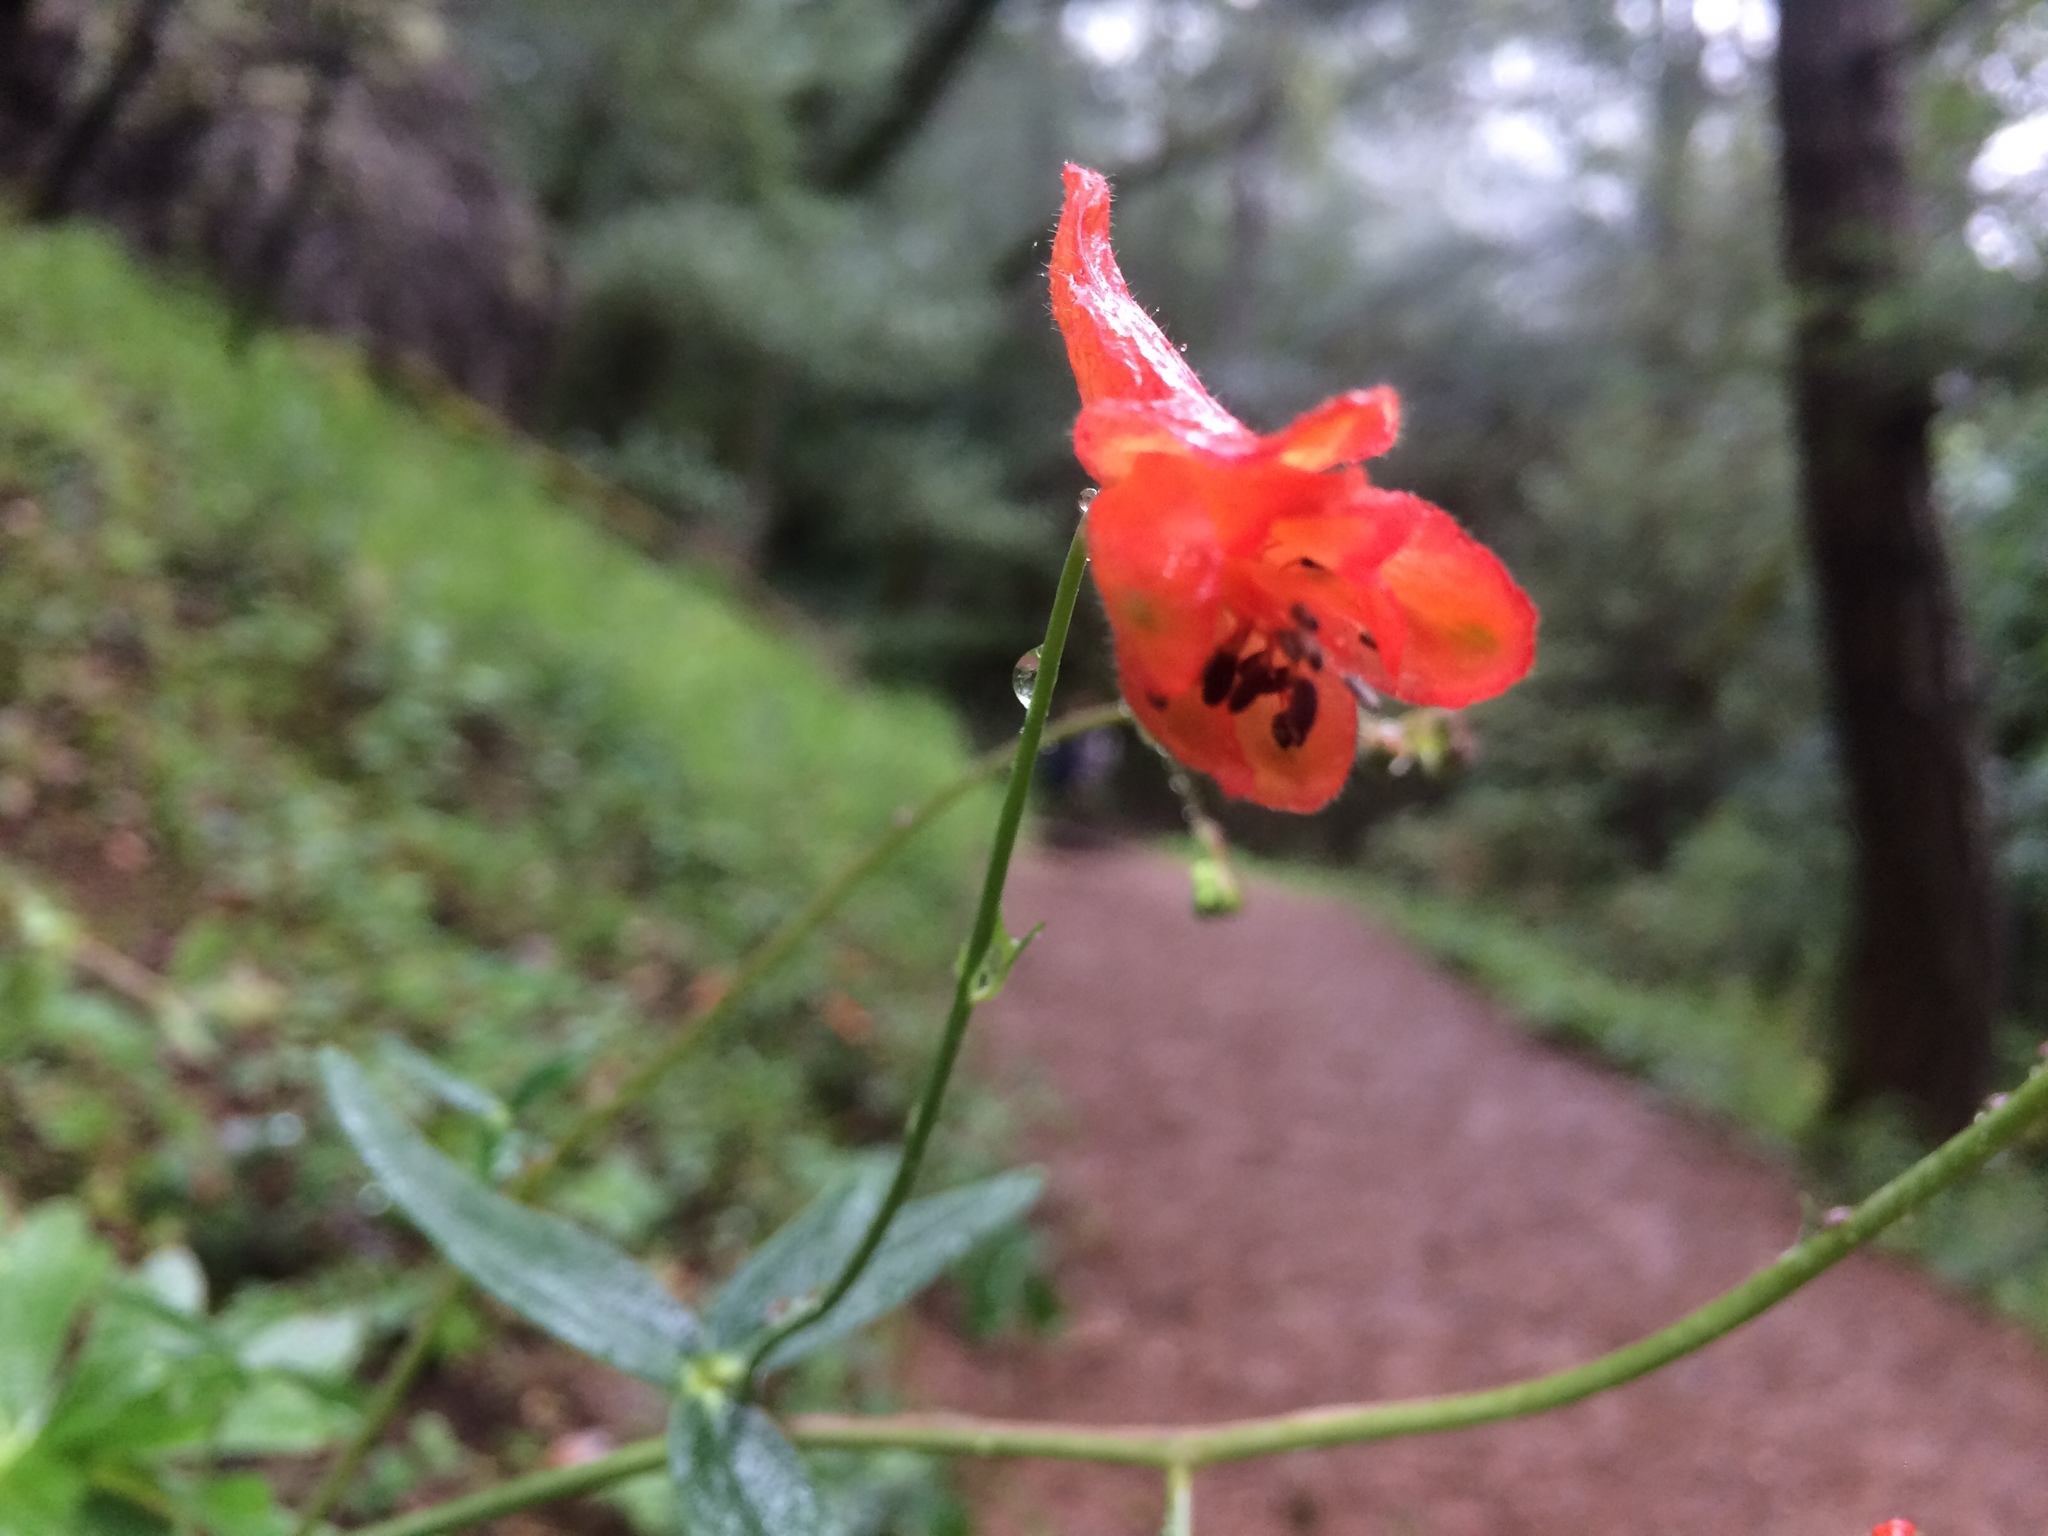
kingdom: Plantae
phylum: Tracheophyta
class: Magnoliopsida
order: Ranunculales
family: Ranunculaceae
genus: Delphinium
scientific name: Delphinium nudicaule
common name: Red larkspur
